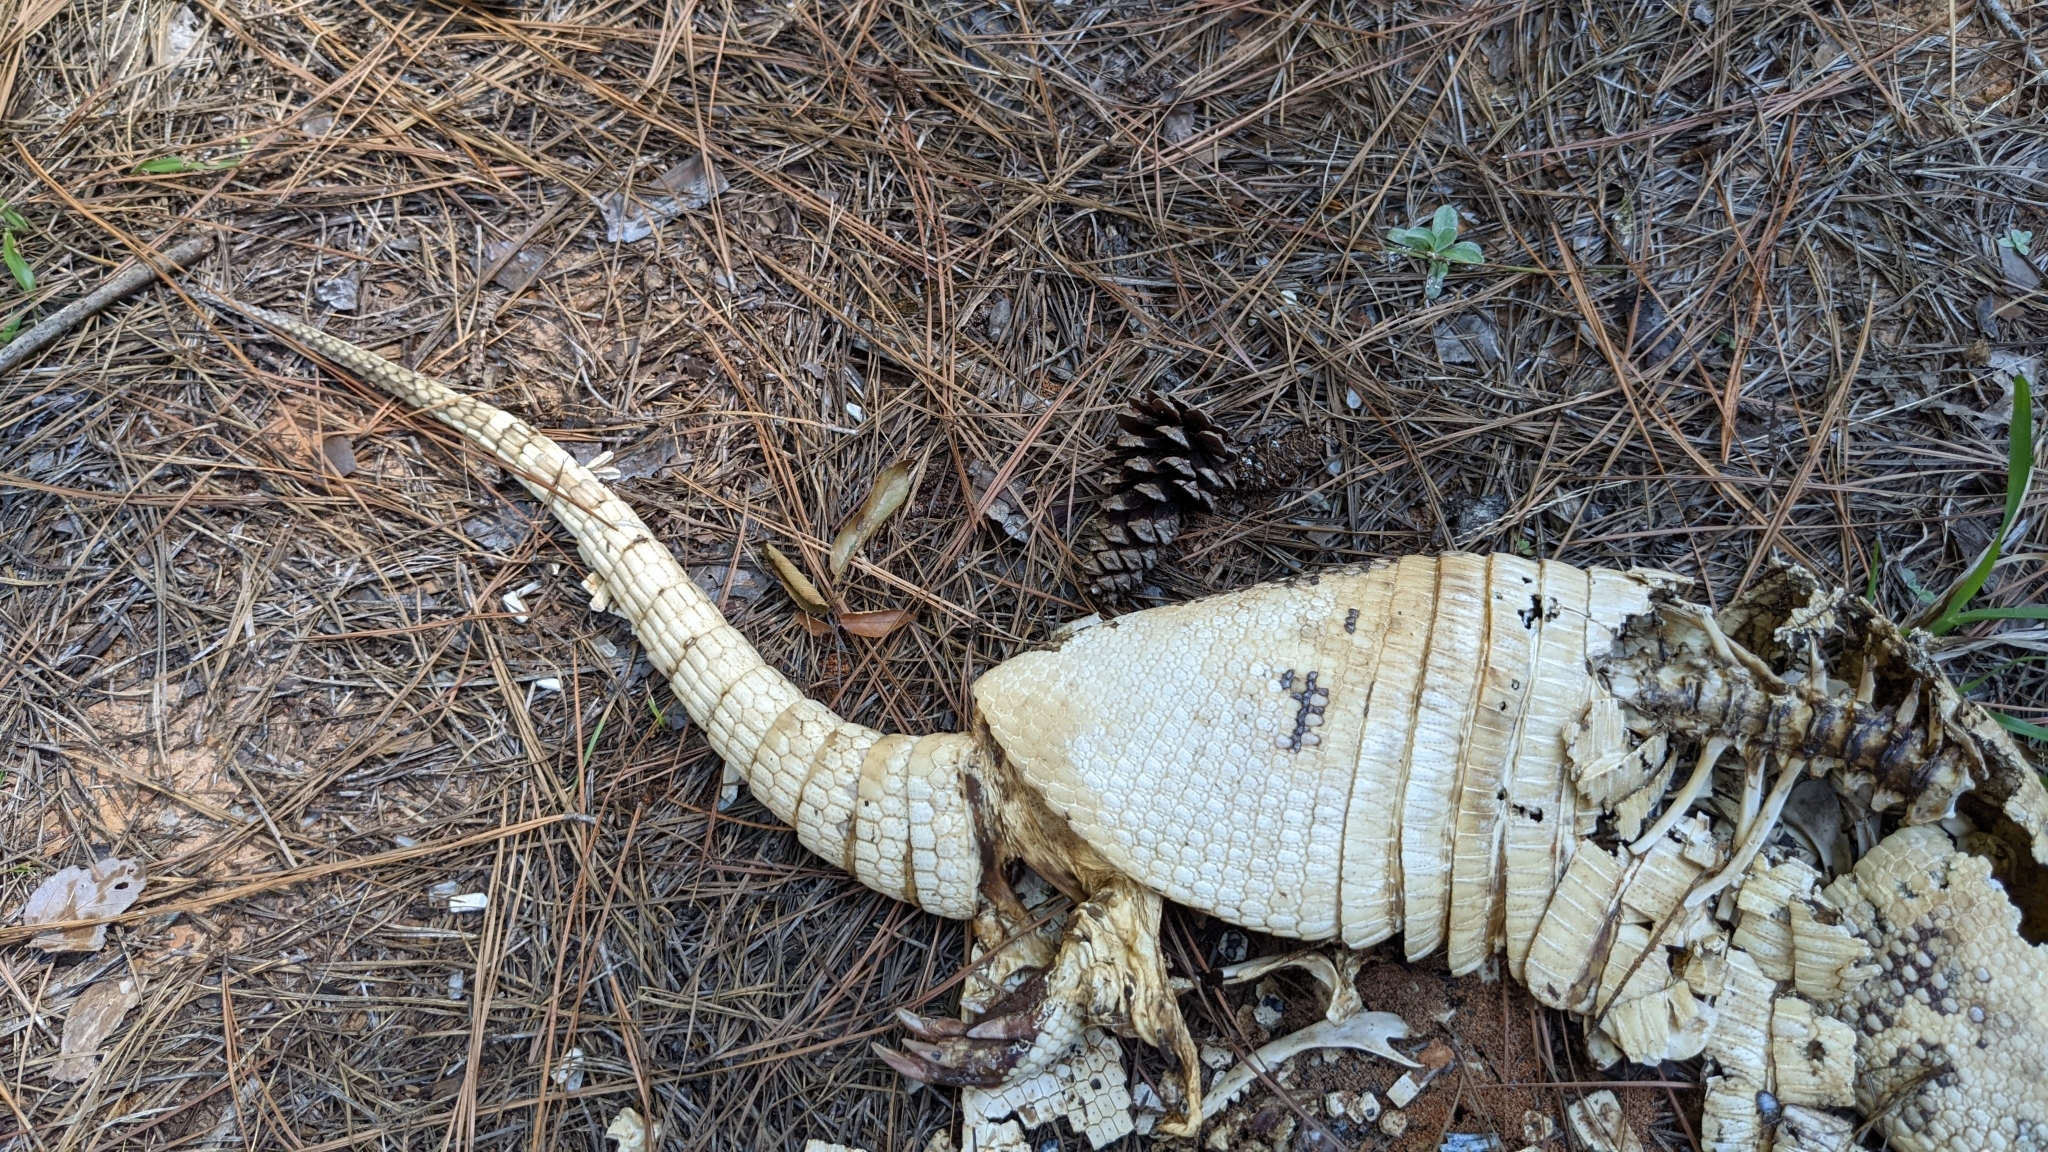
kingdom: Animalia
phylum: Chordata
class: Mammalia
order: Cingulata
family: Dasypodidae
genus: Dasypus
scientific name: Dasypus novemcinctus
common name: Nine-banded armadillo
